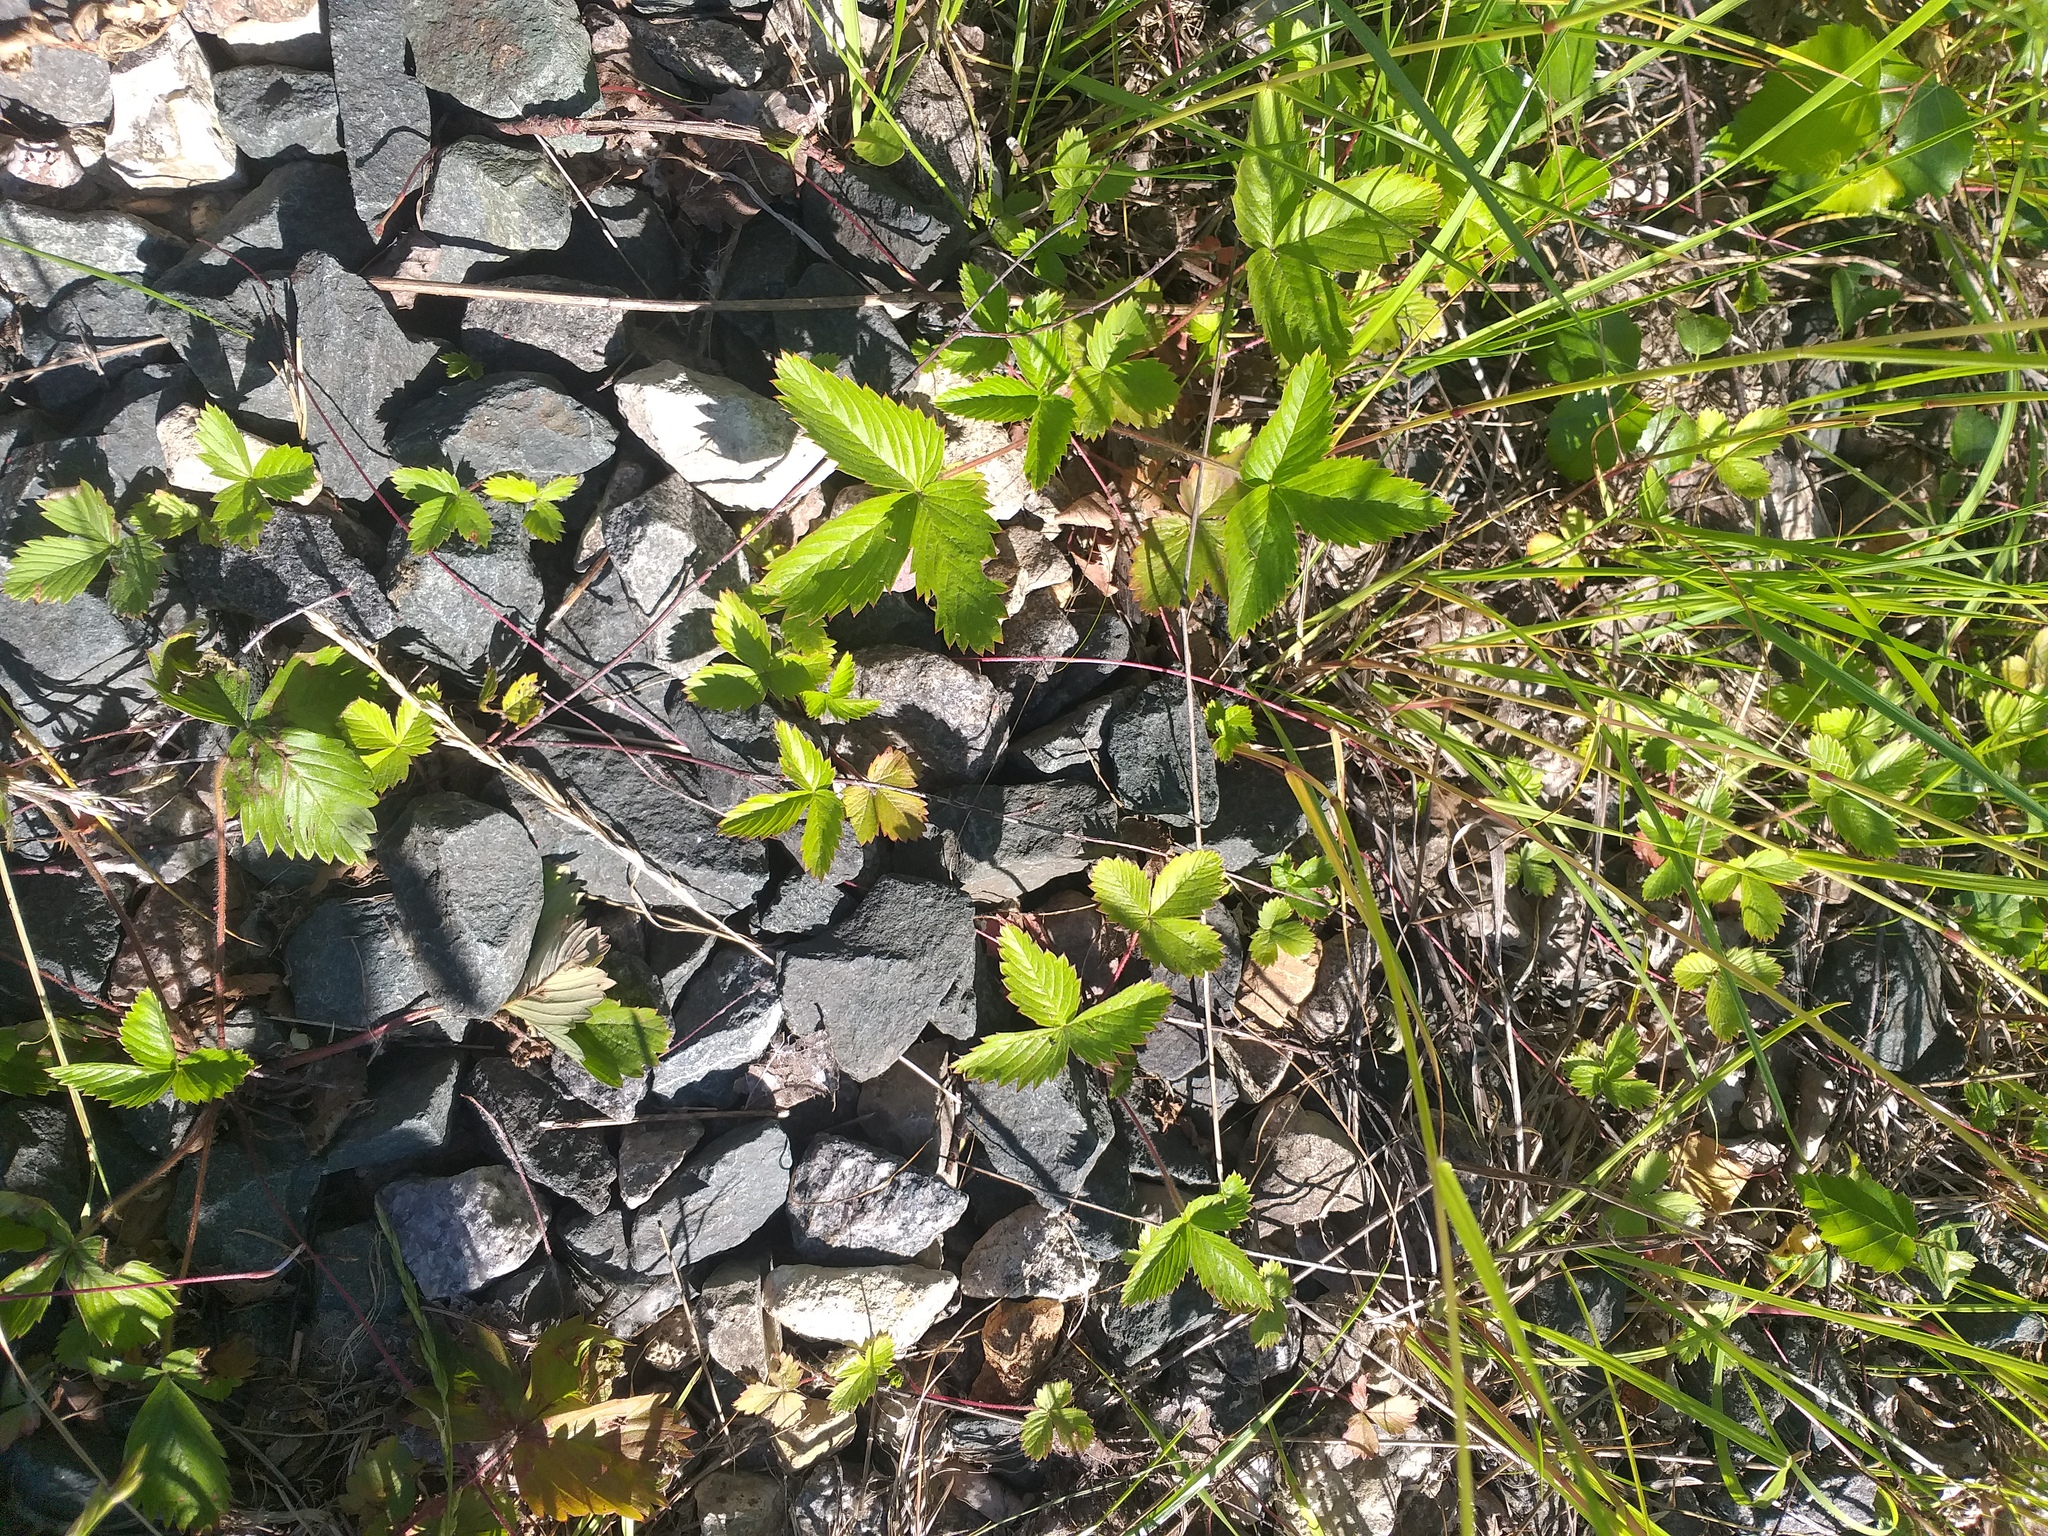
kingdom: Plantae
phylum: Tracheophyta
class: Magnoliopsida
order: Rosales
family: Rosaceae
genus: Fragaria
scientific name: Fragaria vesca
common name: Wild strawberry
